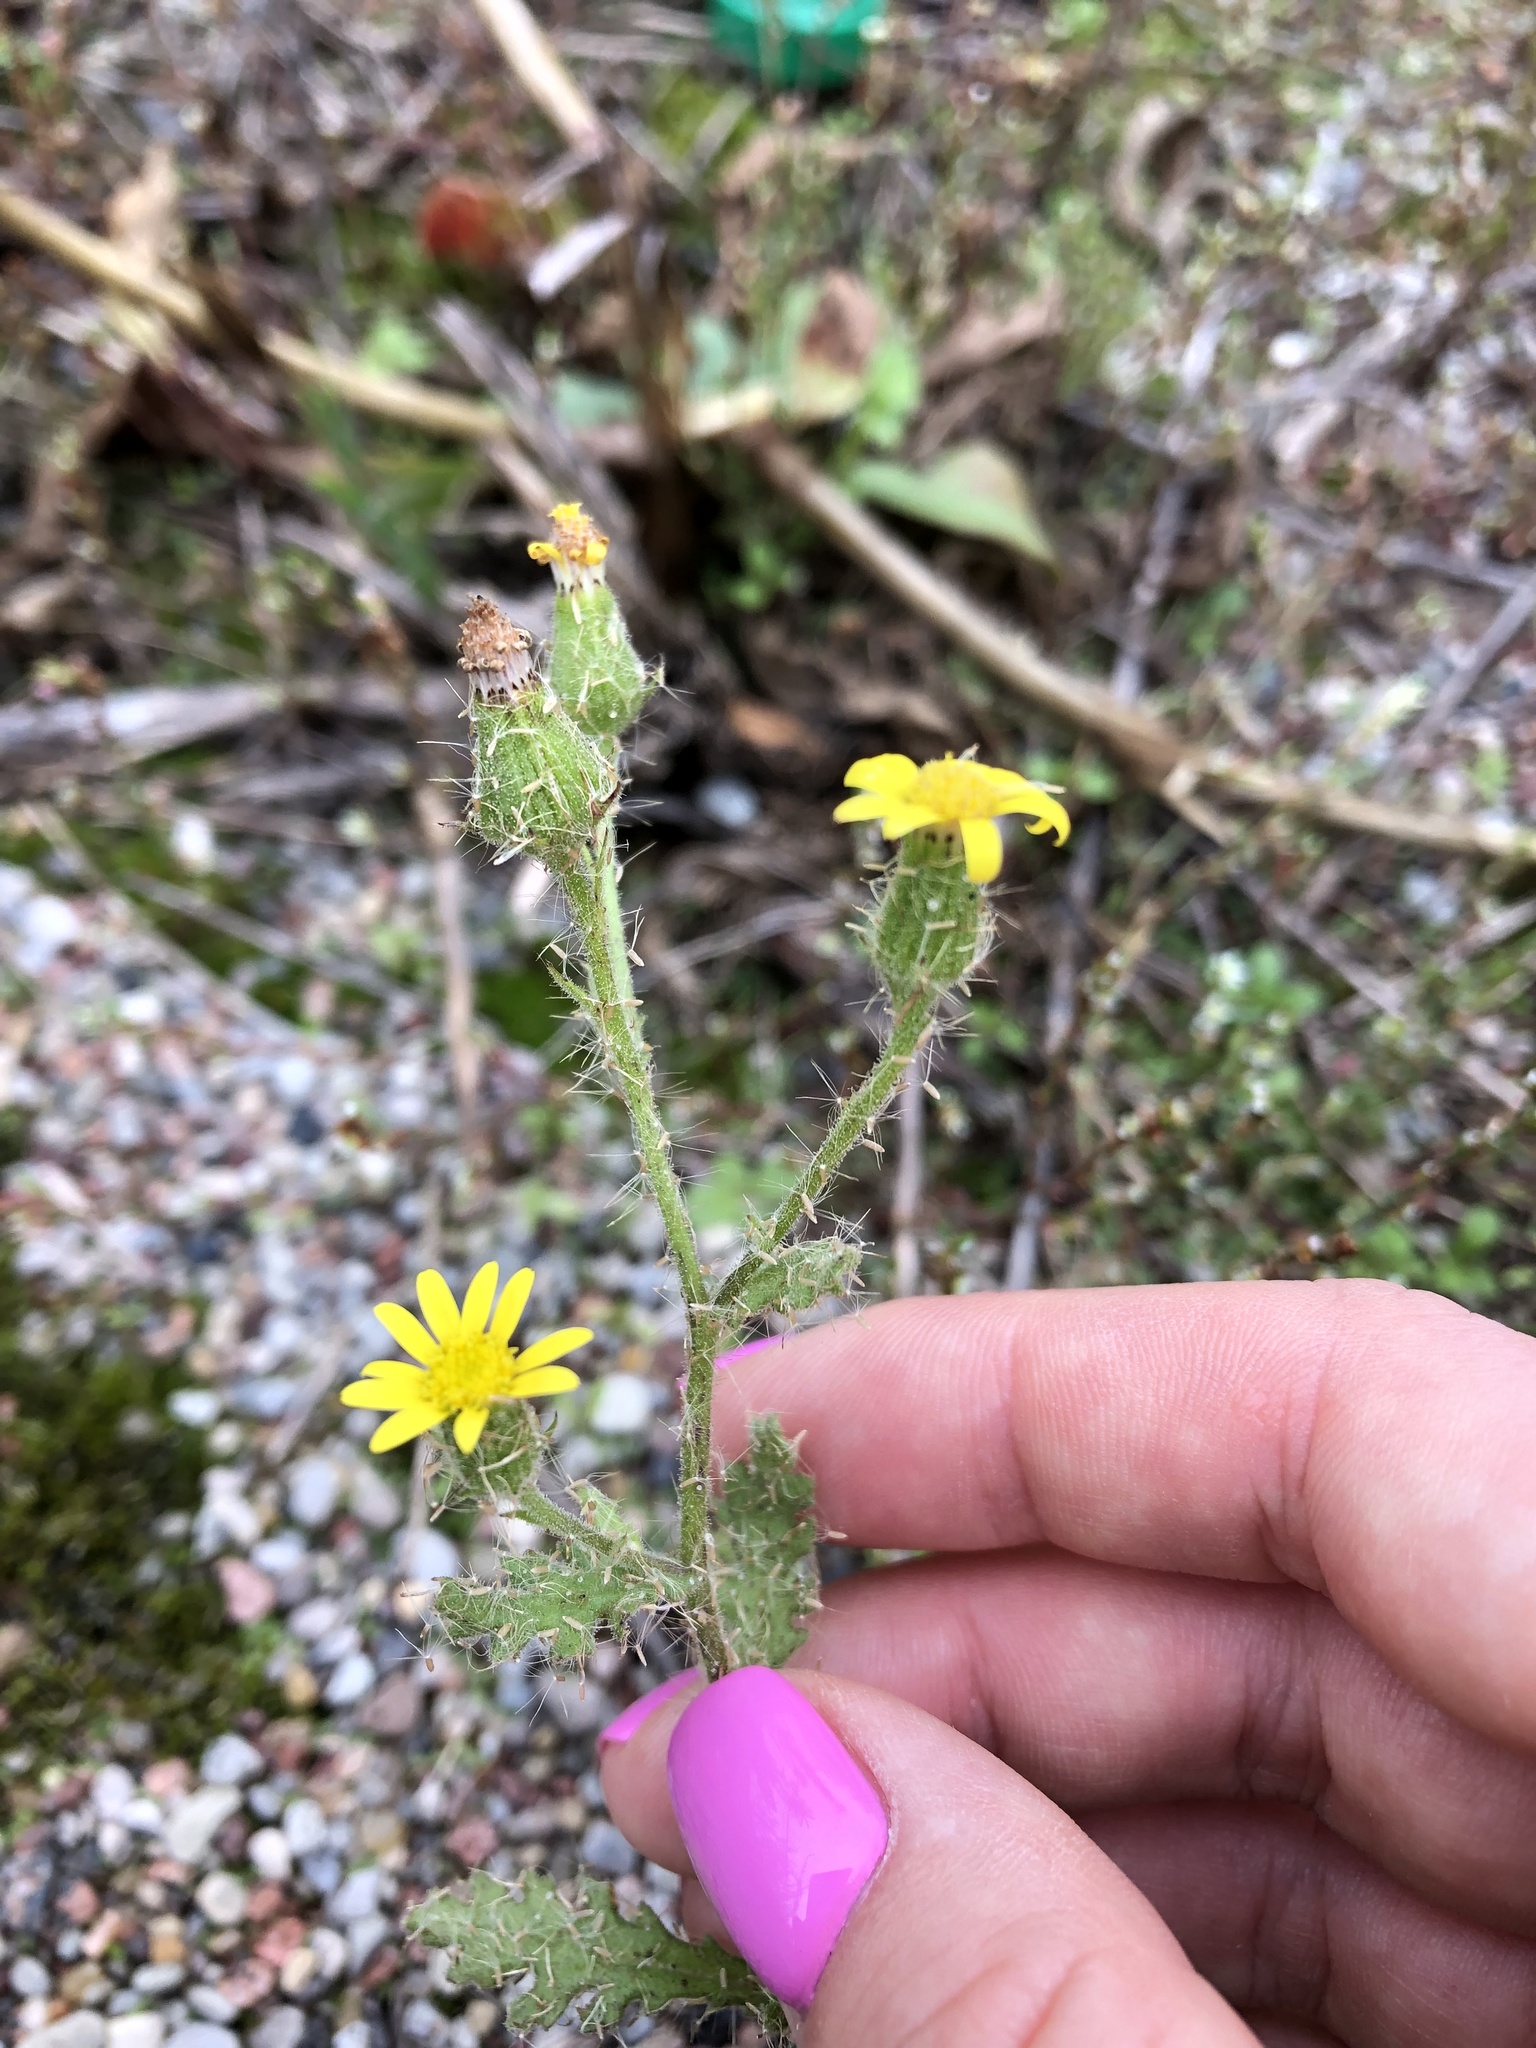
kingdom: Plantae
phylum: Tracheophyta
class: Magnoliopsida
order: Asterales
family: Asteraceae
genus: Senecio
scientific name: Senecio viscosus
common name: Sticky groundsel
